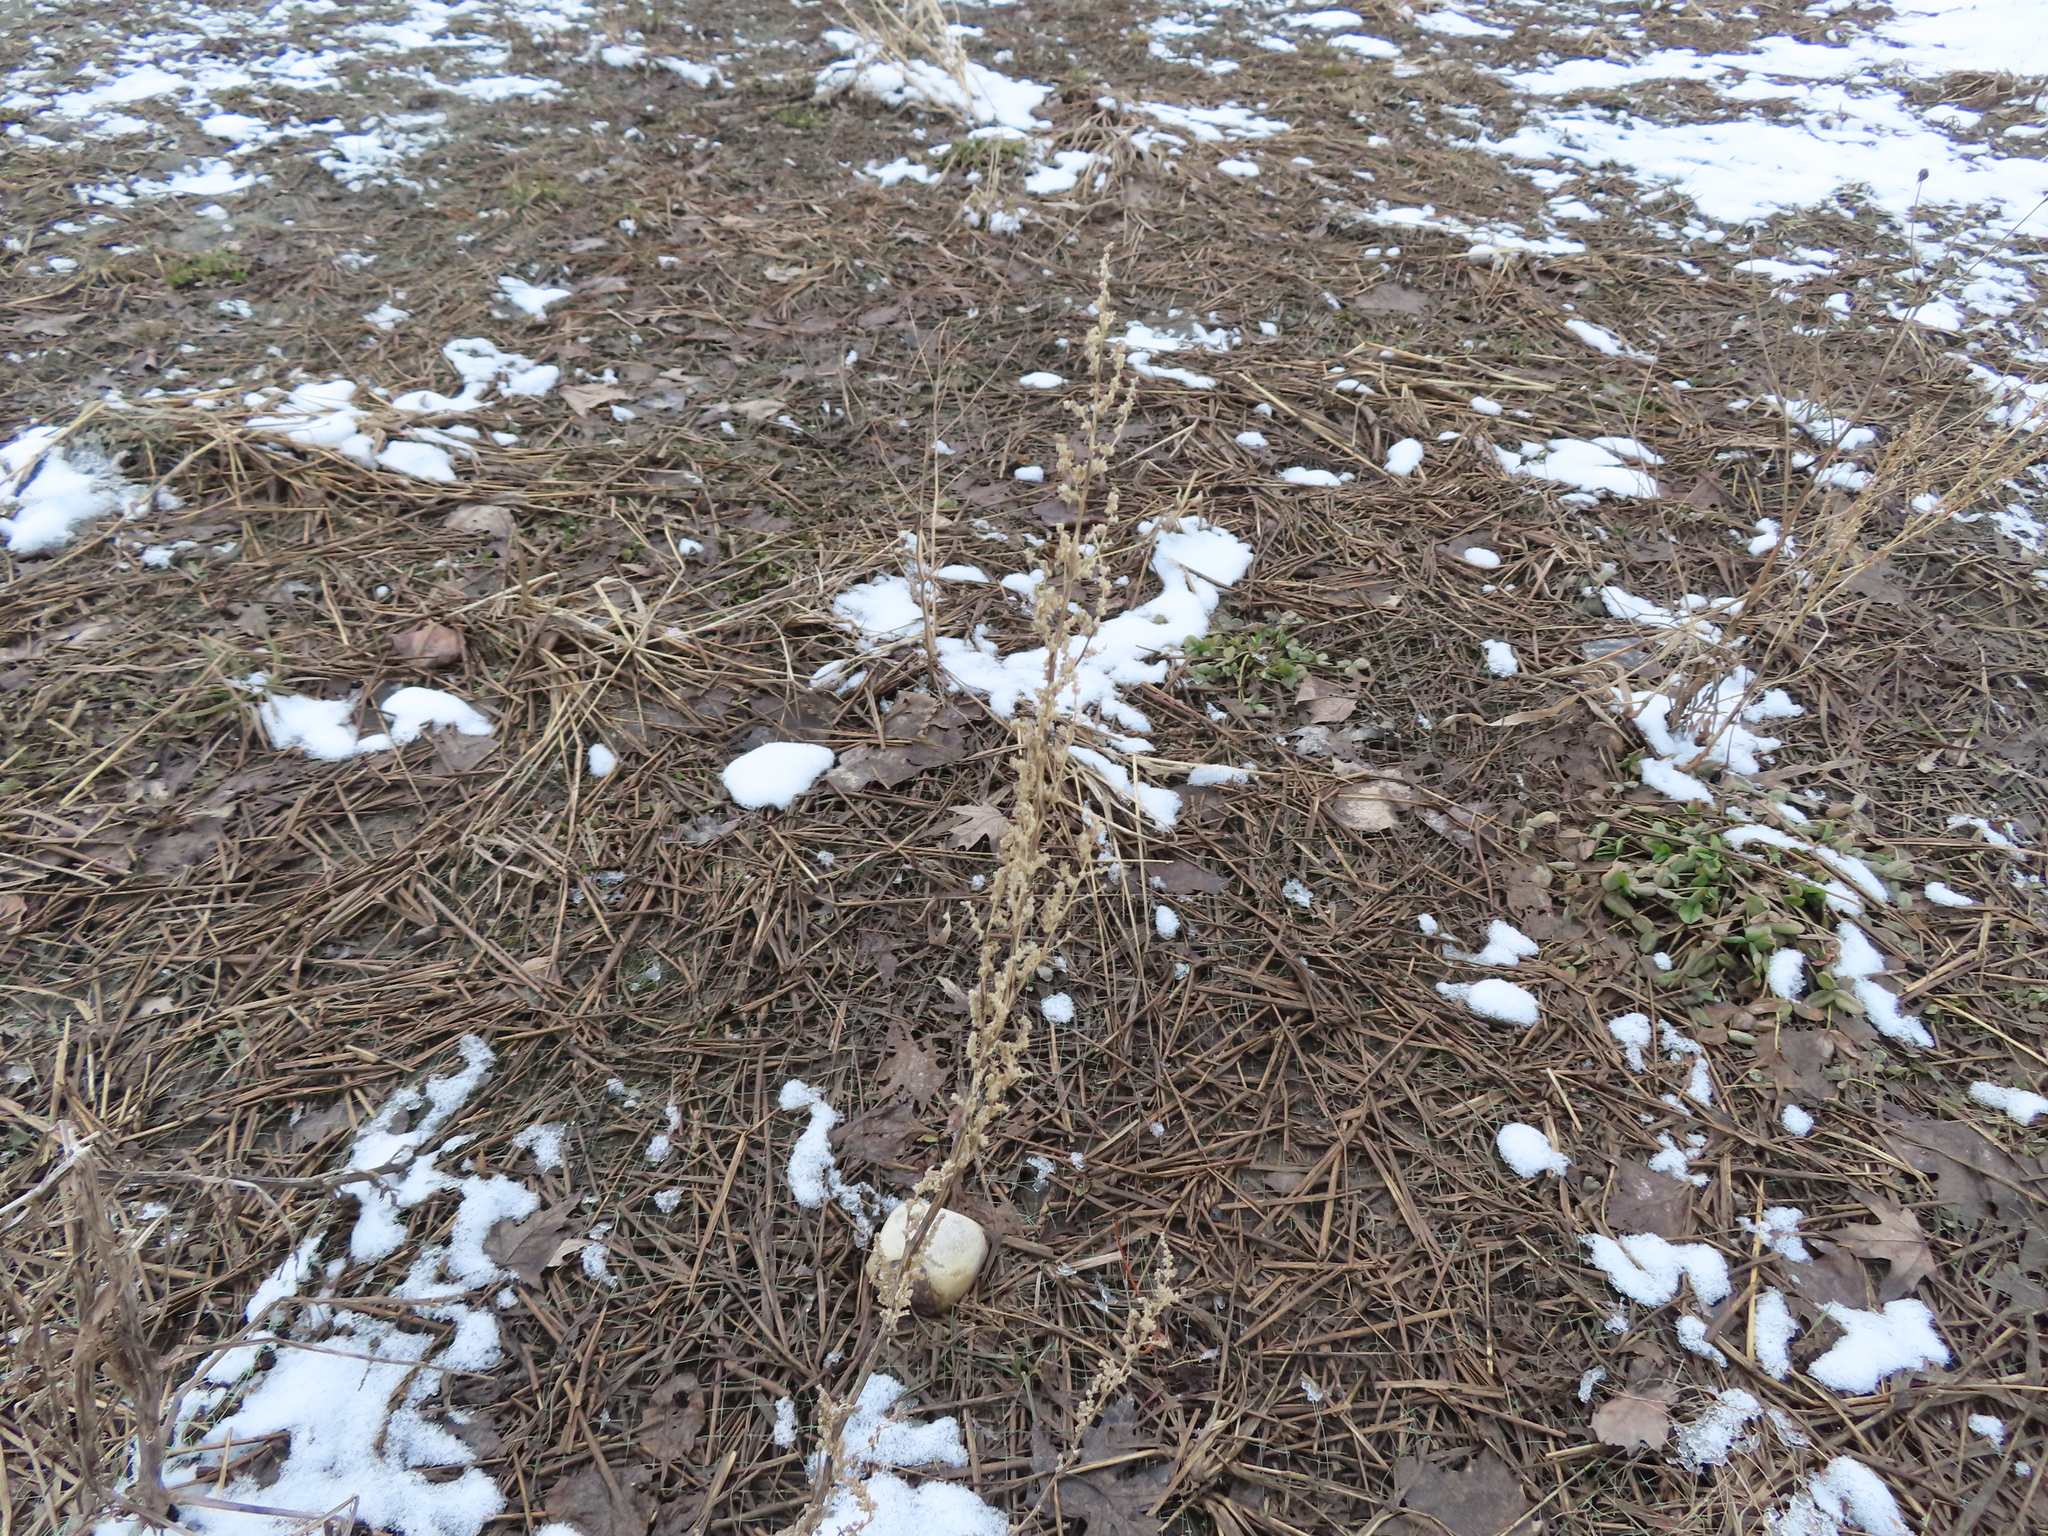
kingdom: Plantae
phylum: Tracheophyta
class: Magnoliopsida
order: Caryophyllales
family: Amaranthaceae
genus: Chenopodium
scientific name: Chenopodium album
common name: Fat-hen
